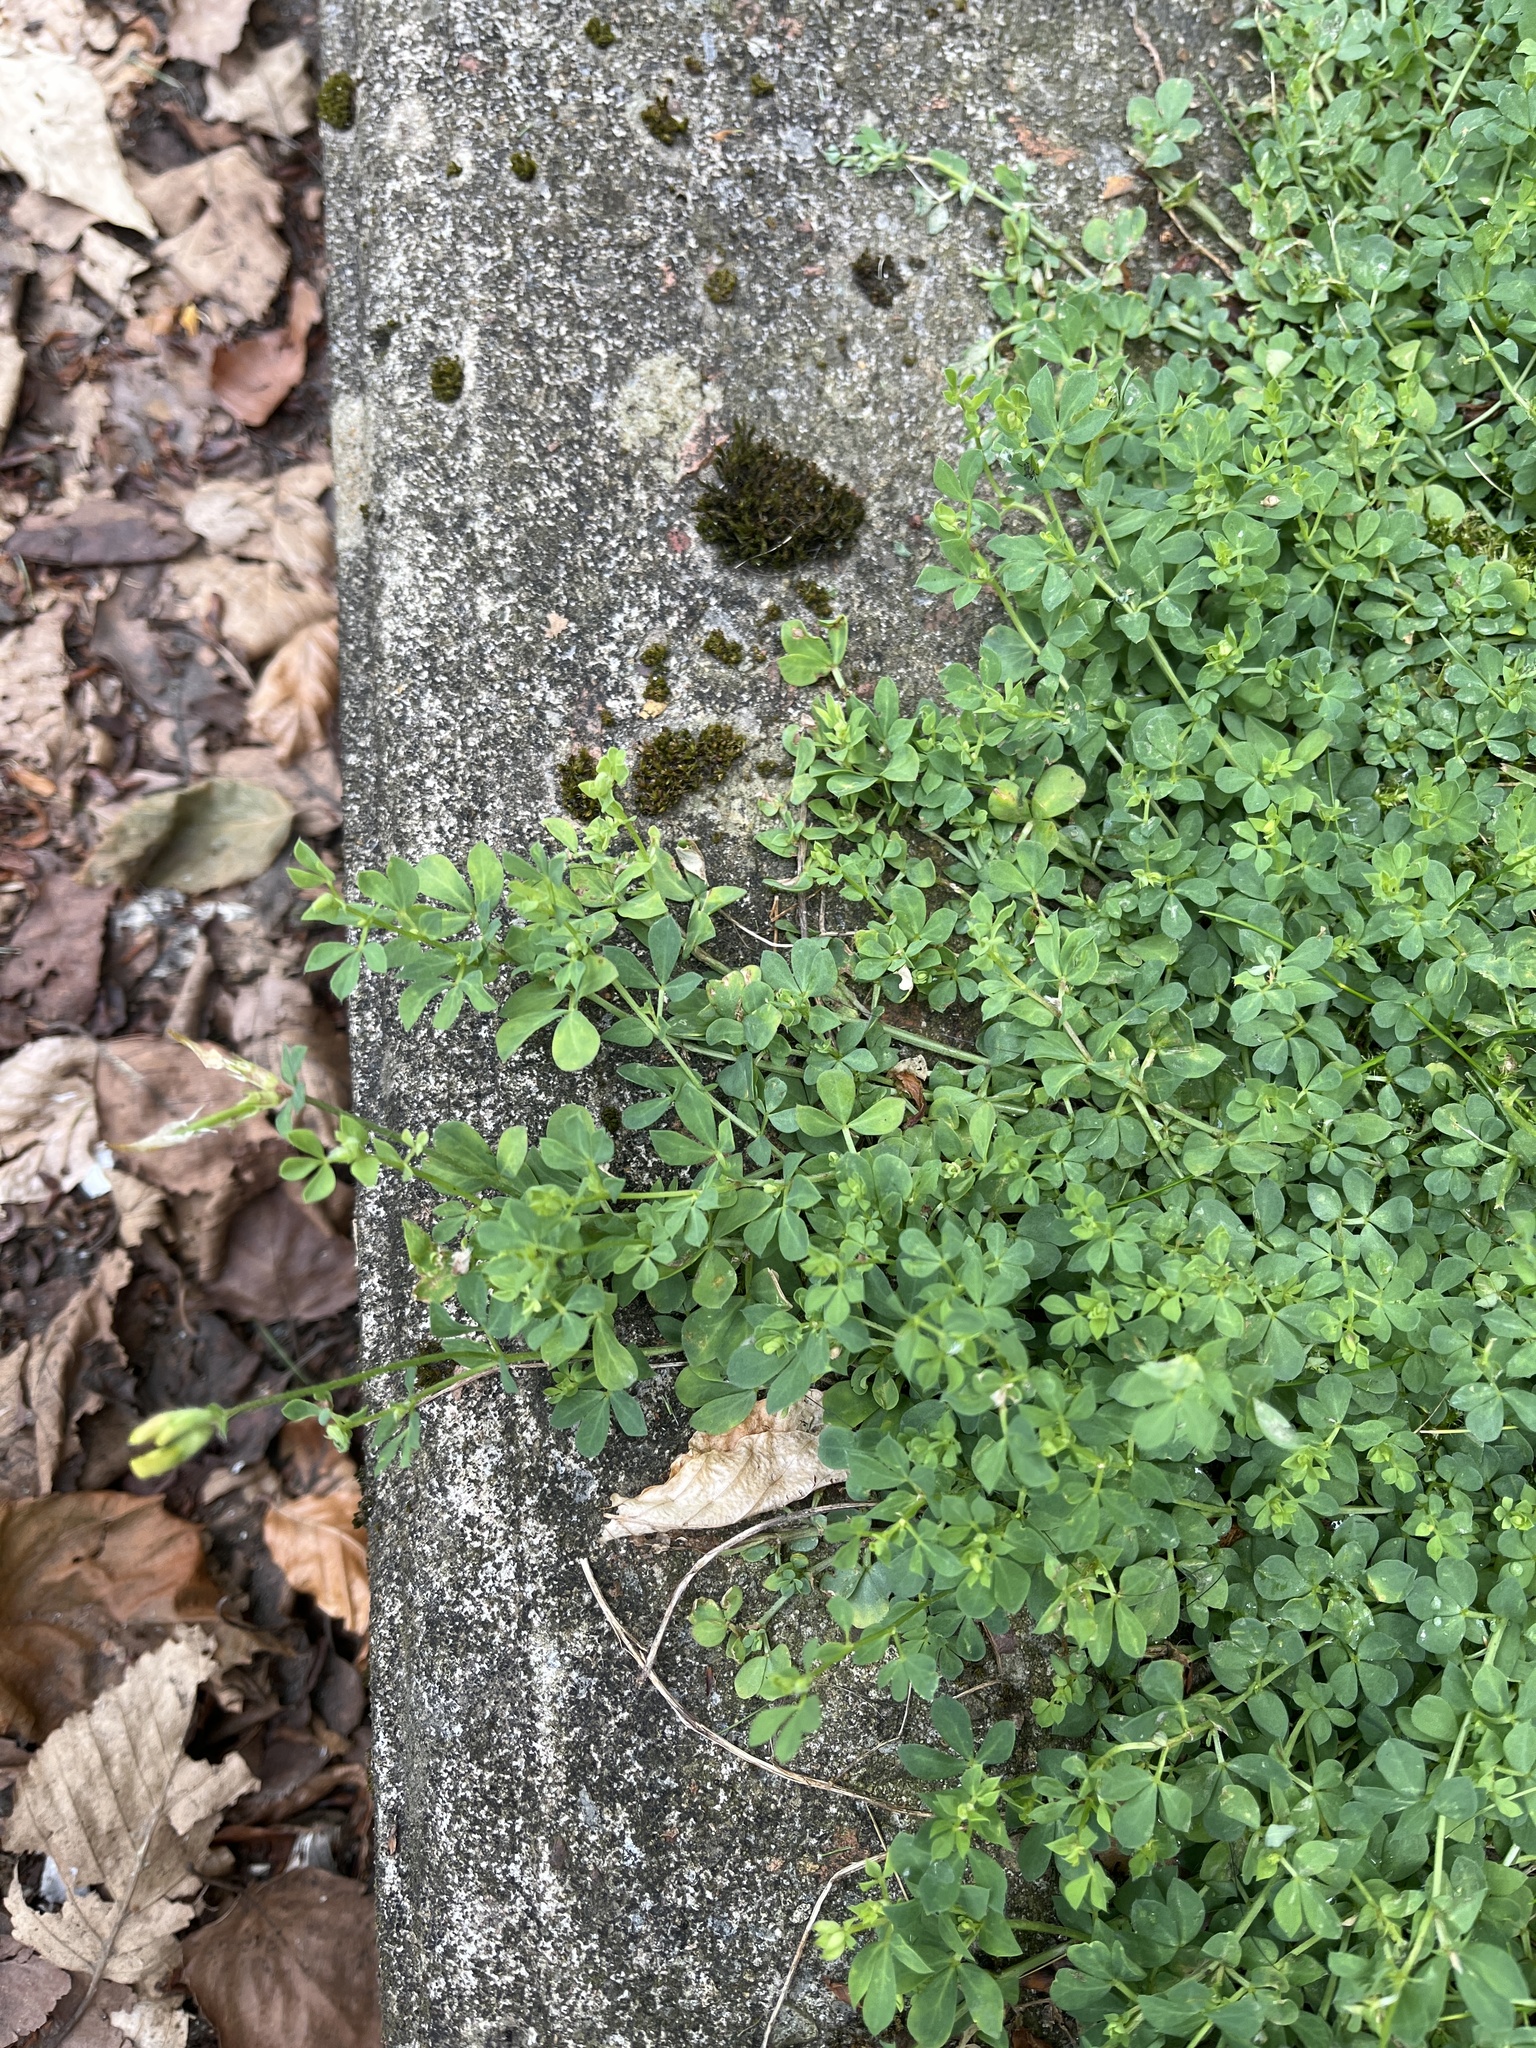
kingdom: Plantae
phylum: Tracheophyta
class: Magnoliopsida
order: Fabales
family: Fabaceae
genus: Lotus
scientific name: Lotus corniculatus
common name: Common bird's-foot-trefoil
